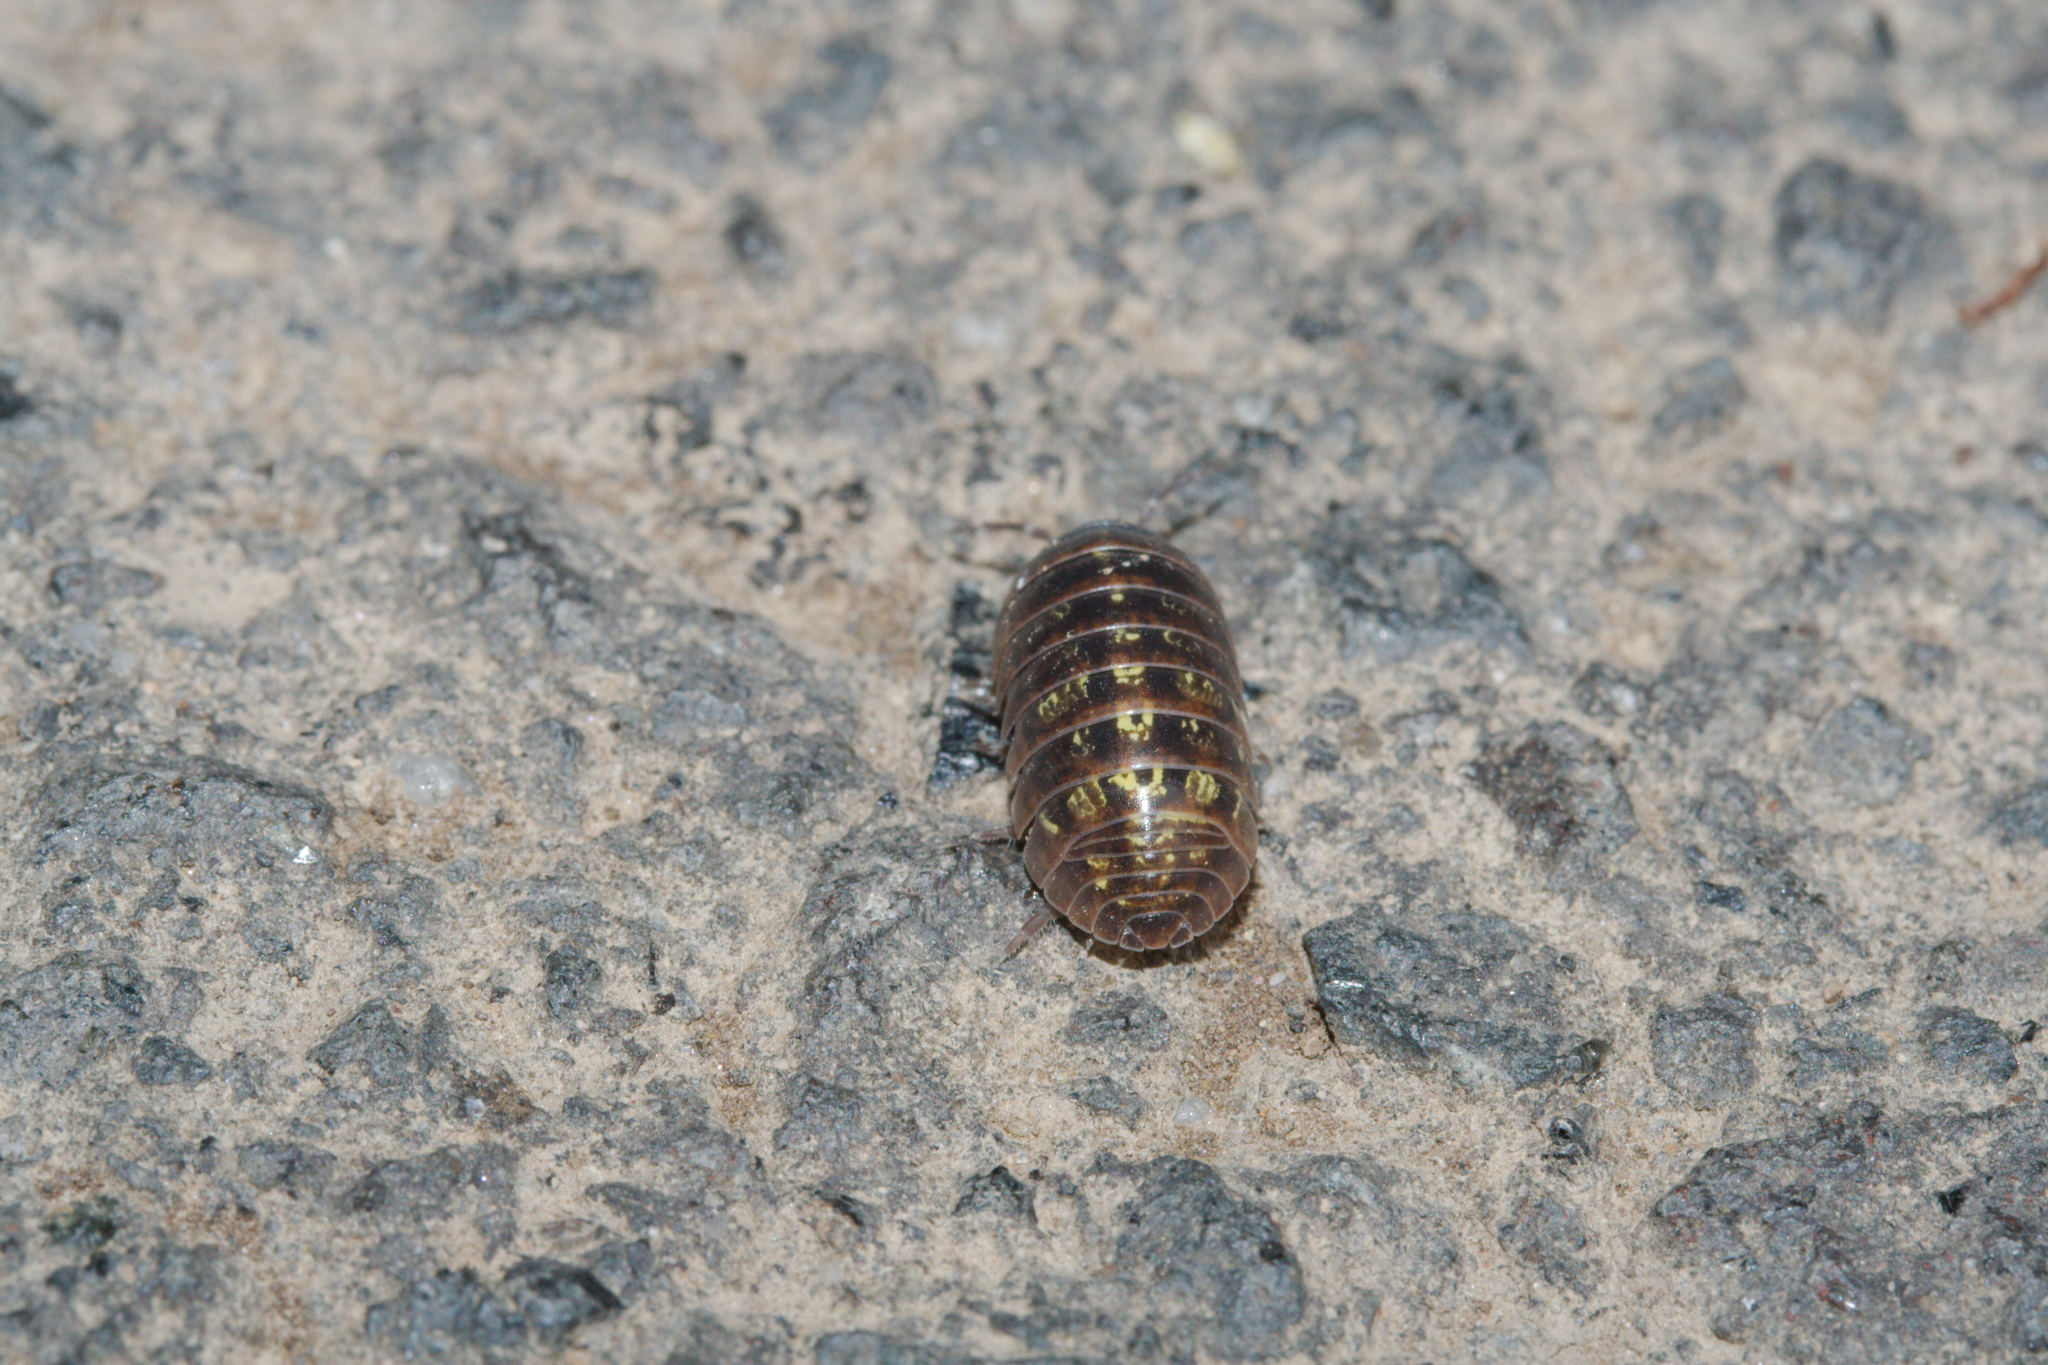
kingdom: Animalia
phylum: Arthropoda
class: Malacostraca
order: Isopoda
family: Armadillidiidae
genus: Armadillidium
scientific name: Armadillidium vulgare
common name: Common pill woodlouse
